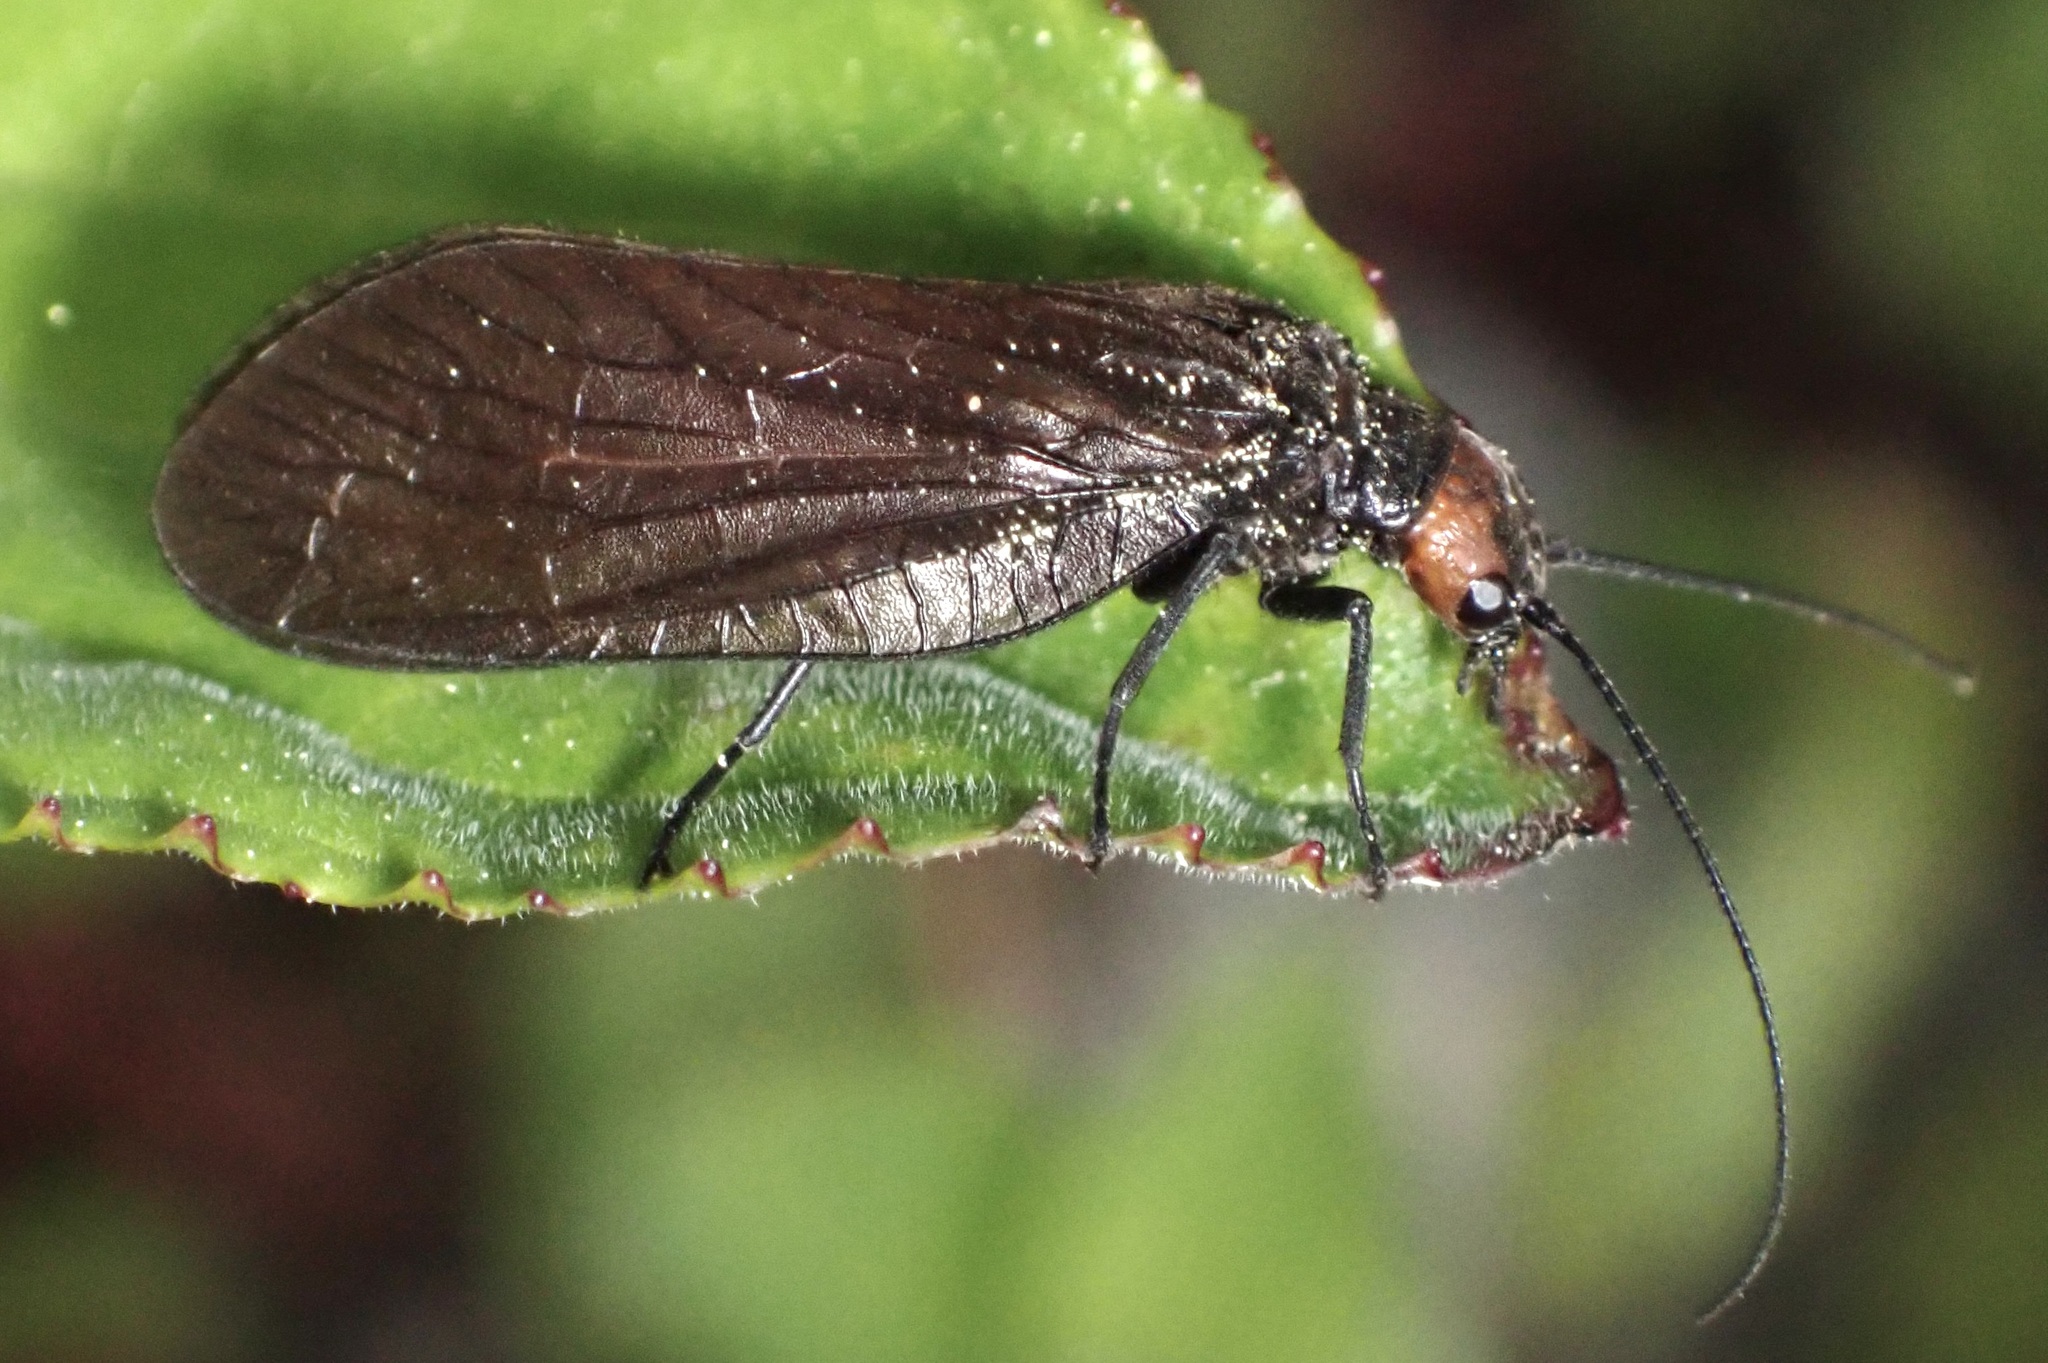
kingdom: Animalia
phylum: Arthropoda
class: Insecta
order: Megaloptera
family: Sialidae
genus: Sialis
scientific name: Sialis nevadensis
